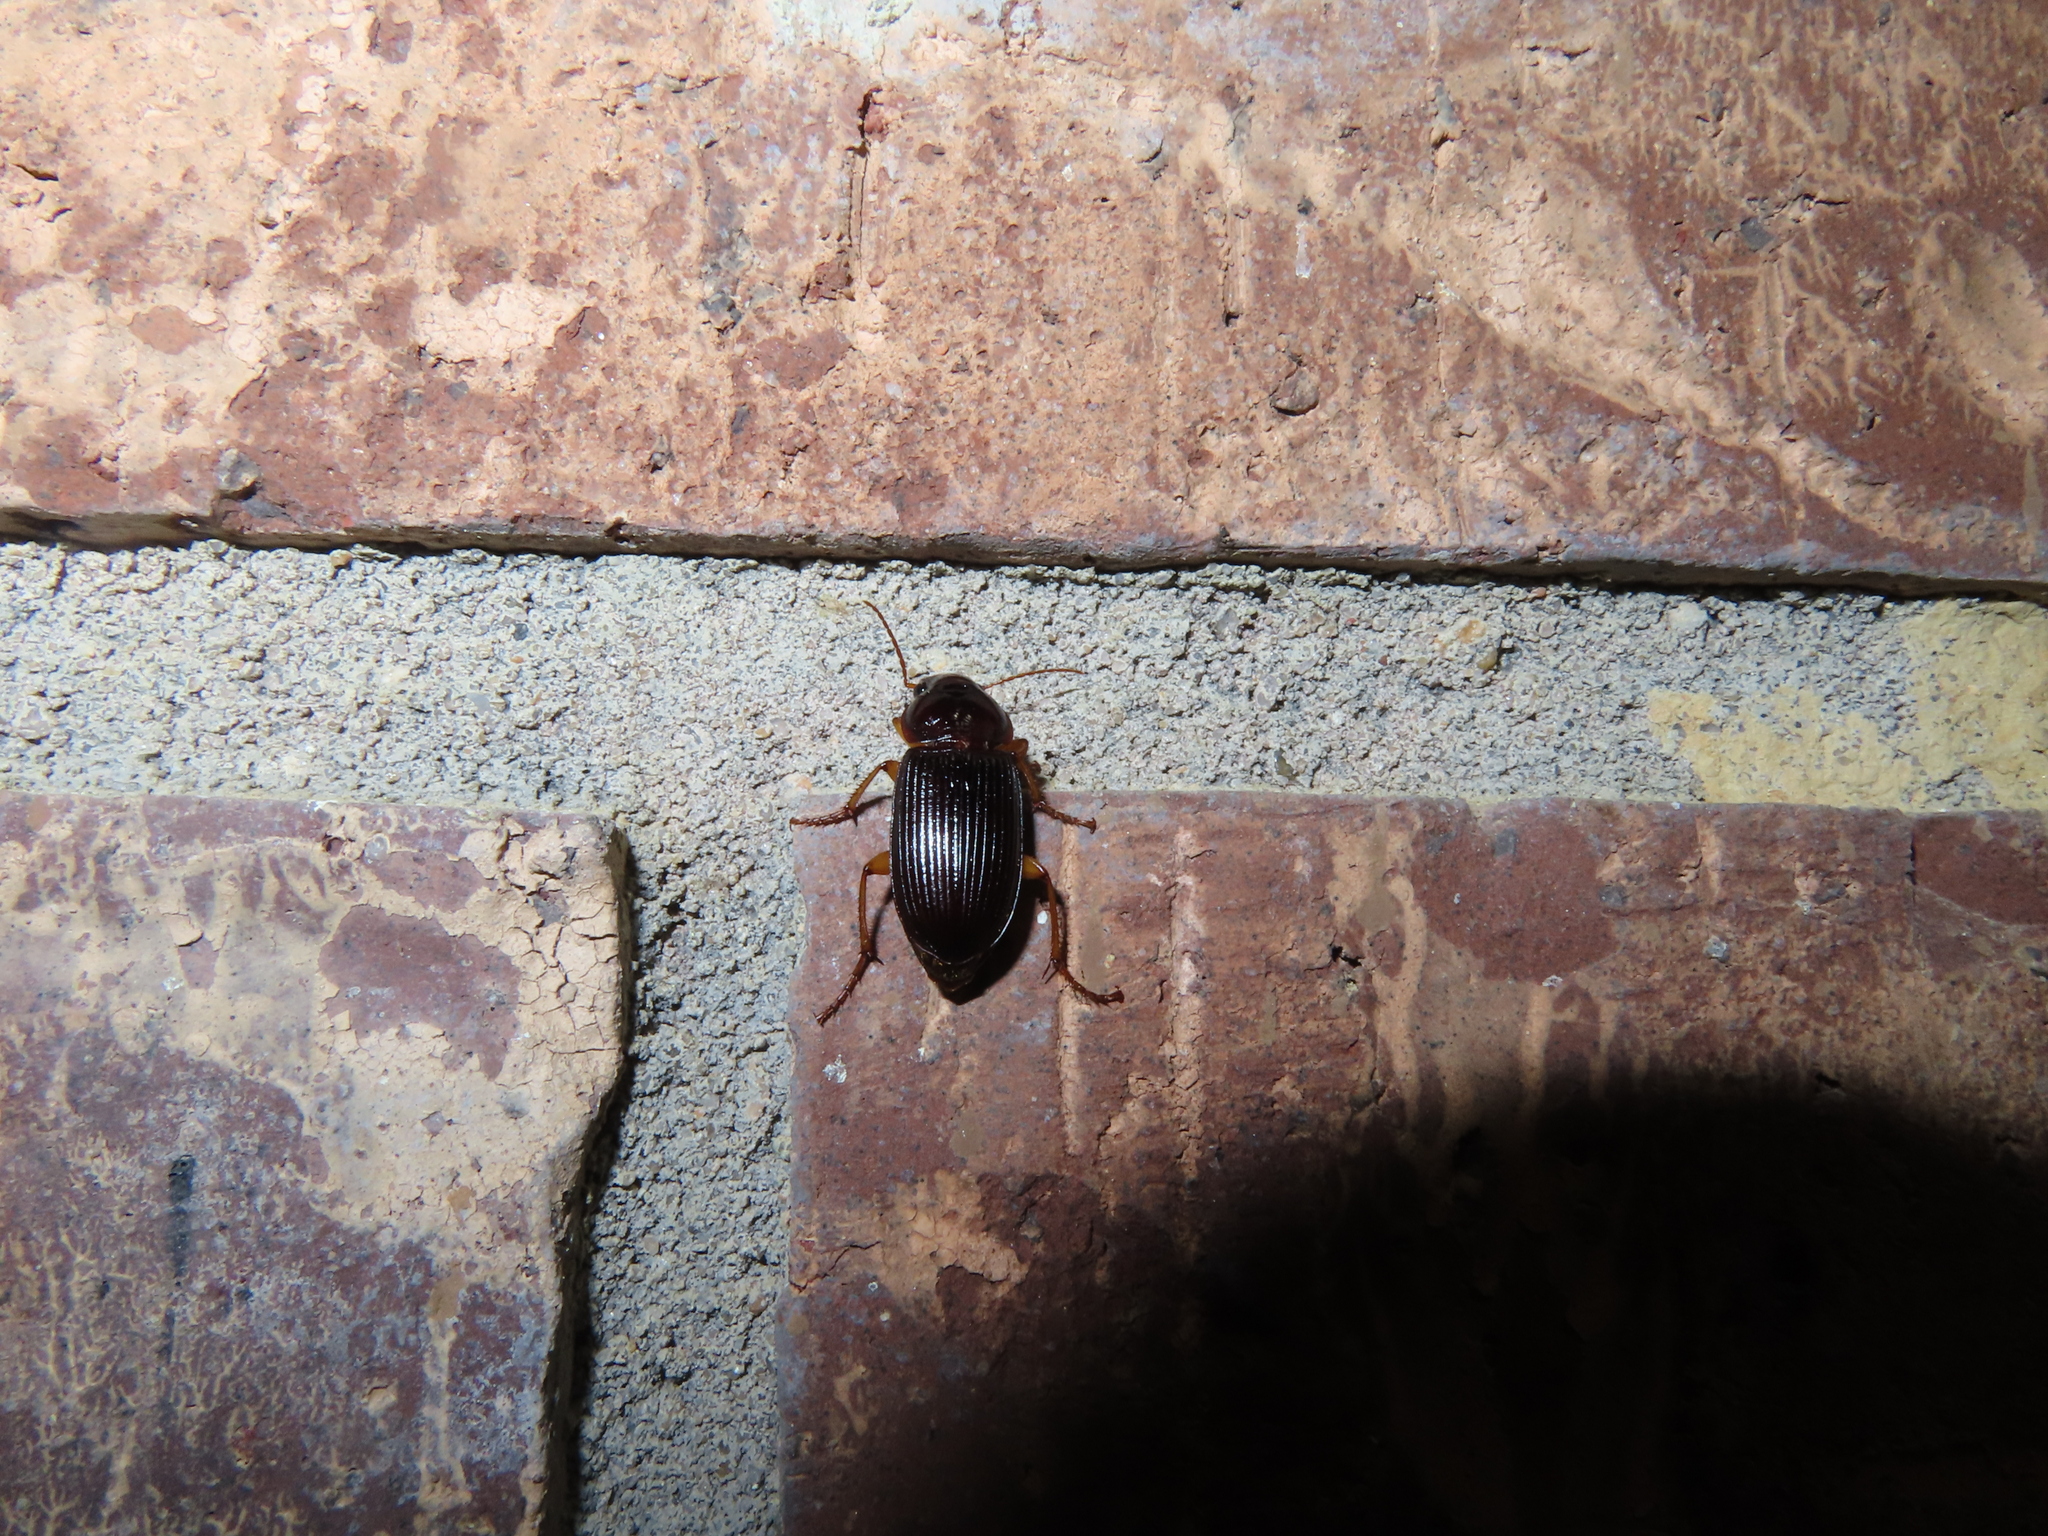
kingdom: Animalia
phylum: Arthropoda
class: Insecta
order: Coleoptera
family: Carabidae
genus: Harpalus
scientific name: Harpalus pensylvanicus
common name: Pennsylvania dingy ground beetle
